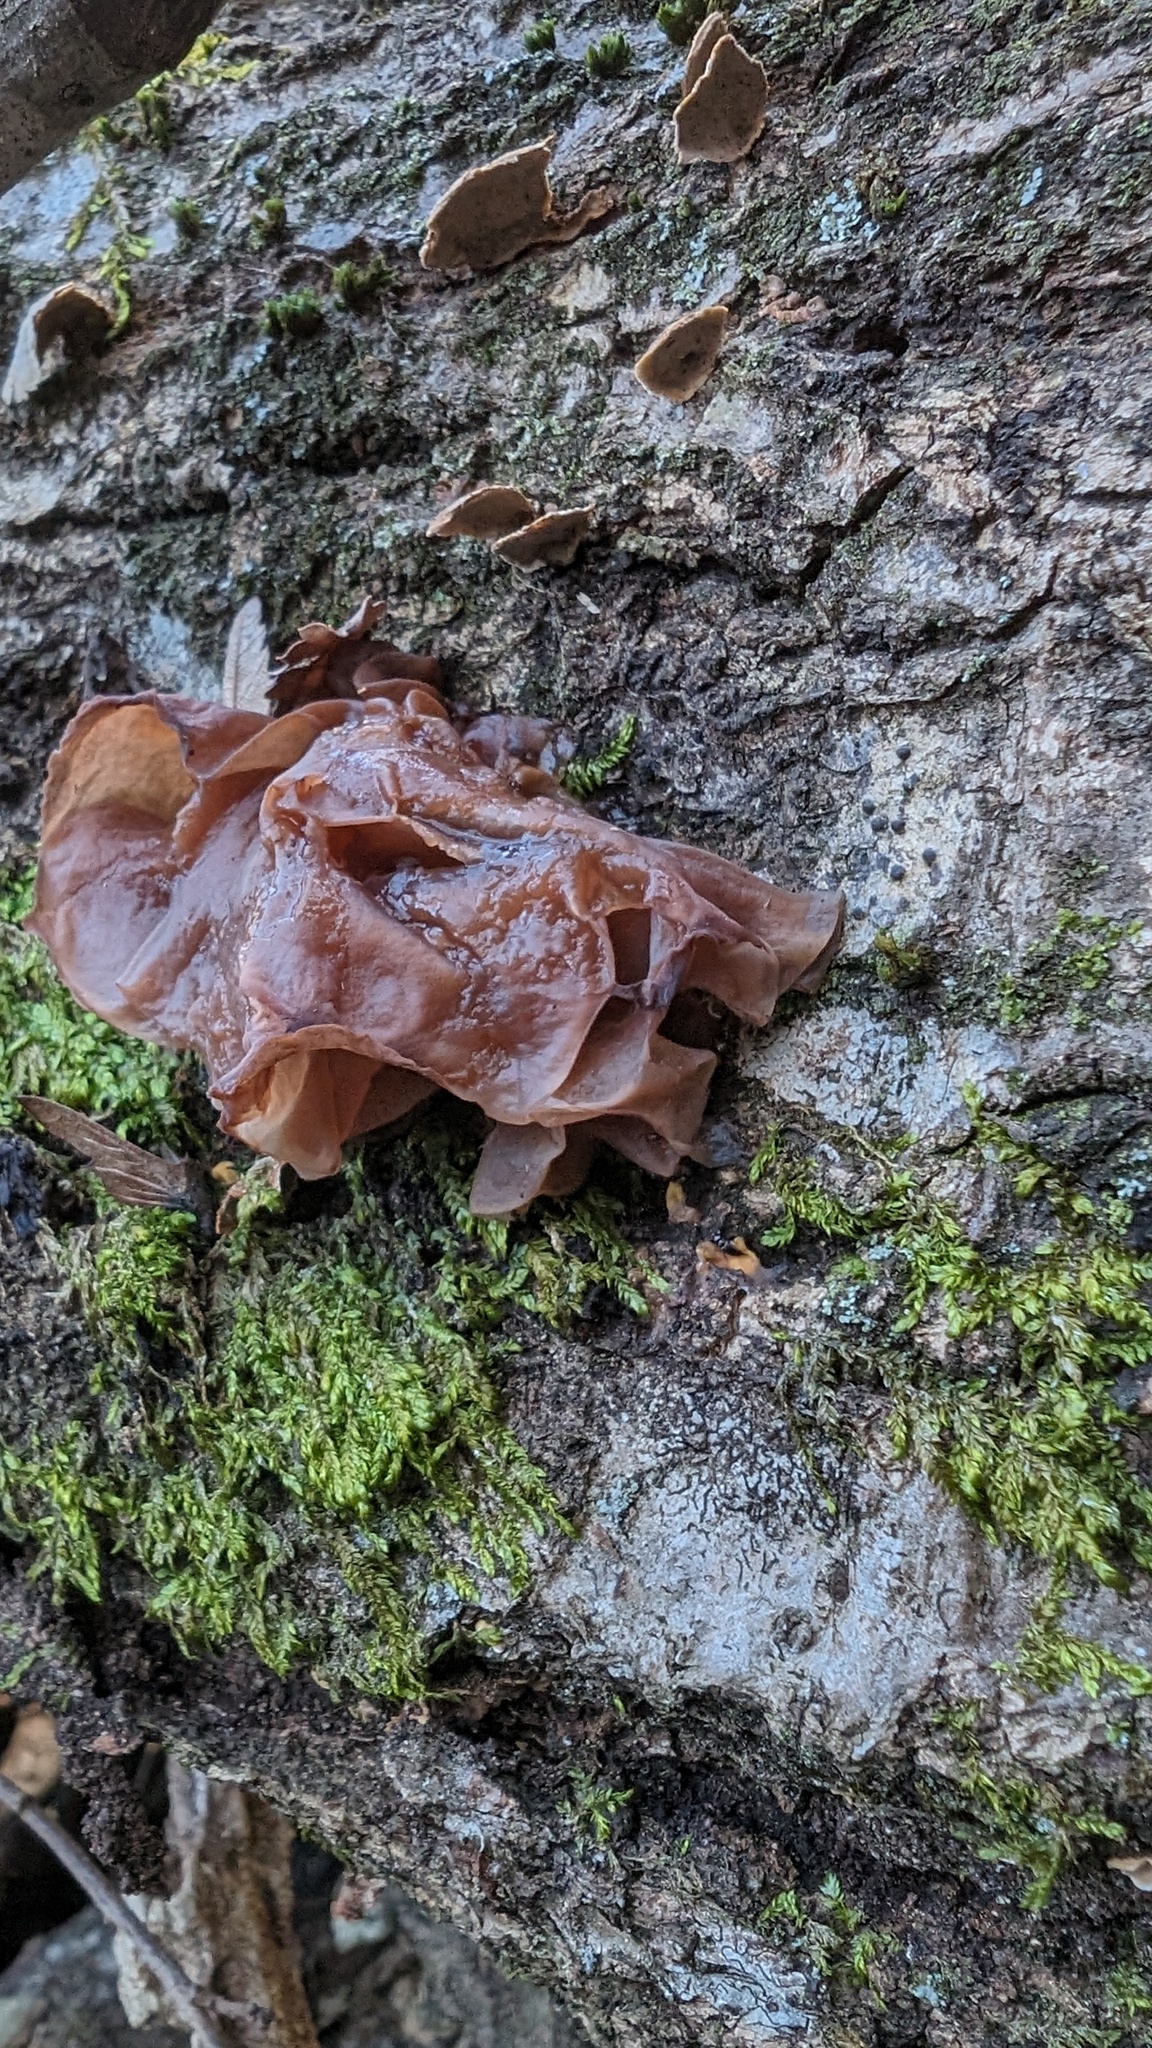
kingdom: Fungi
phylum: Basidiomycota
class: Tremellomycetes
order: Tremellales
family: Tremellaceae
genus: Phaeotremella
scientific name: Phaeotremella foliacea
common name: Leafy brain
